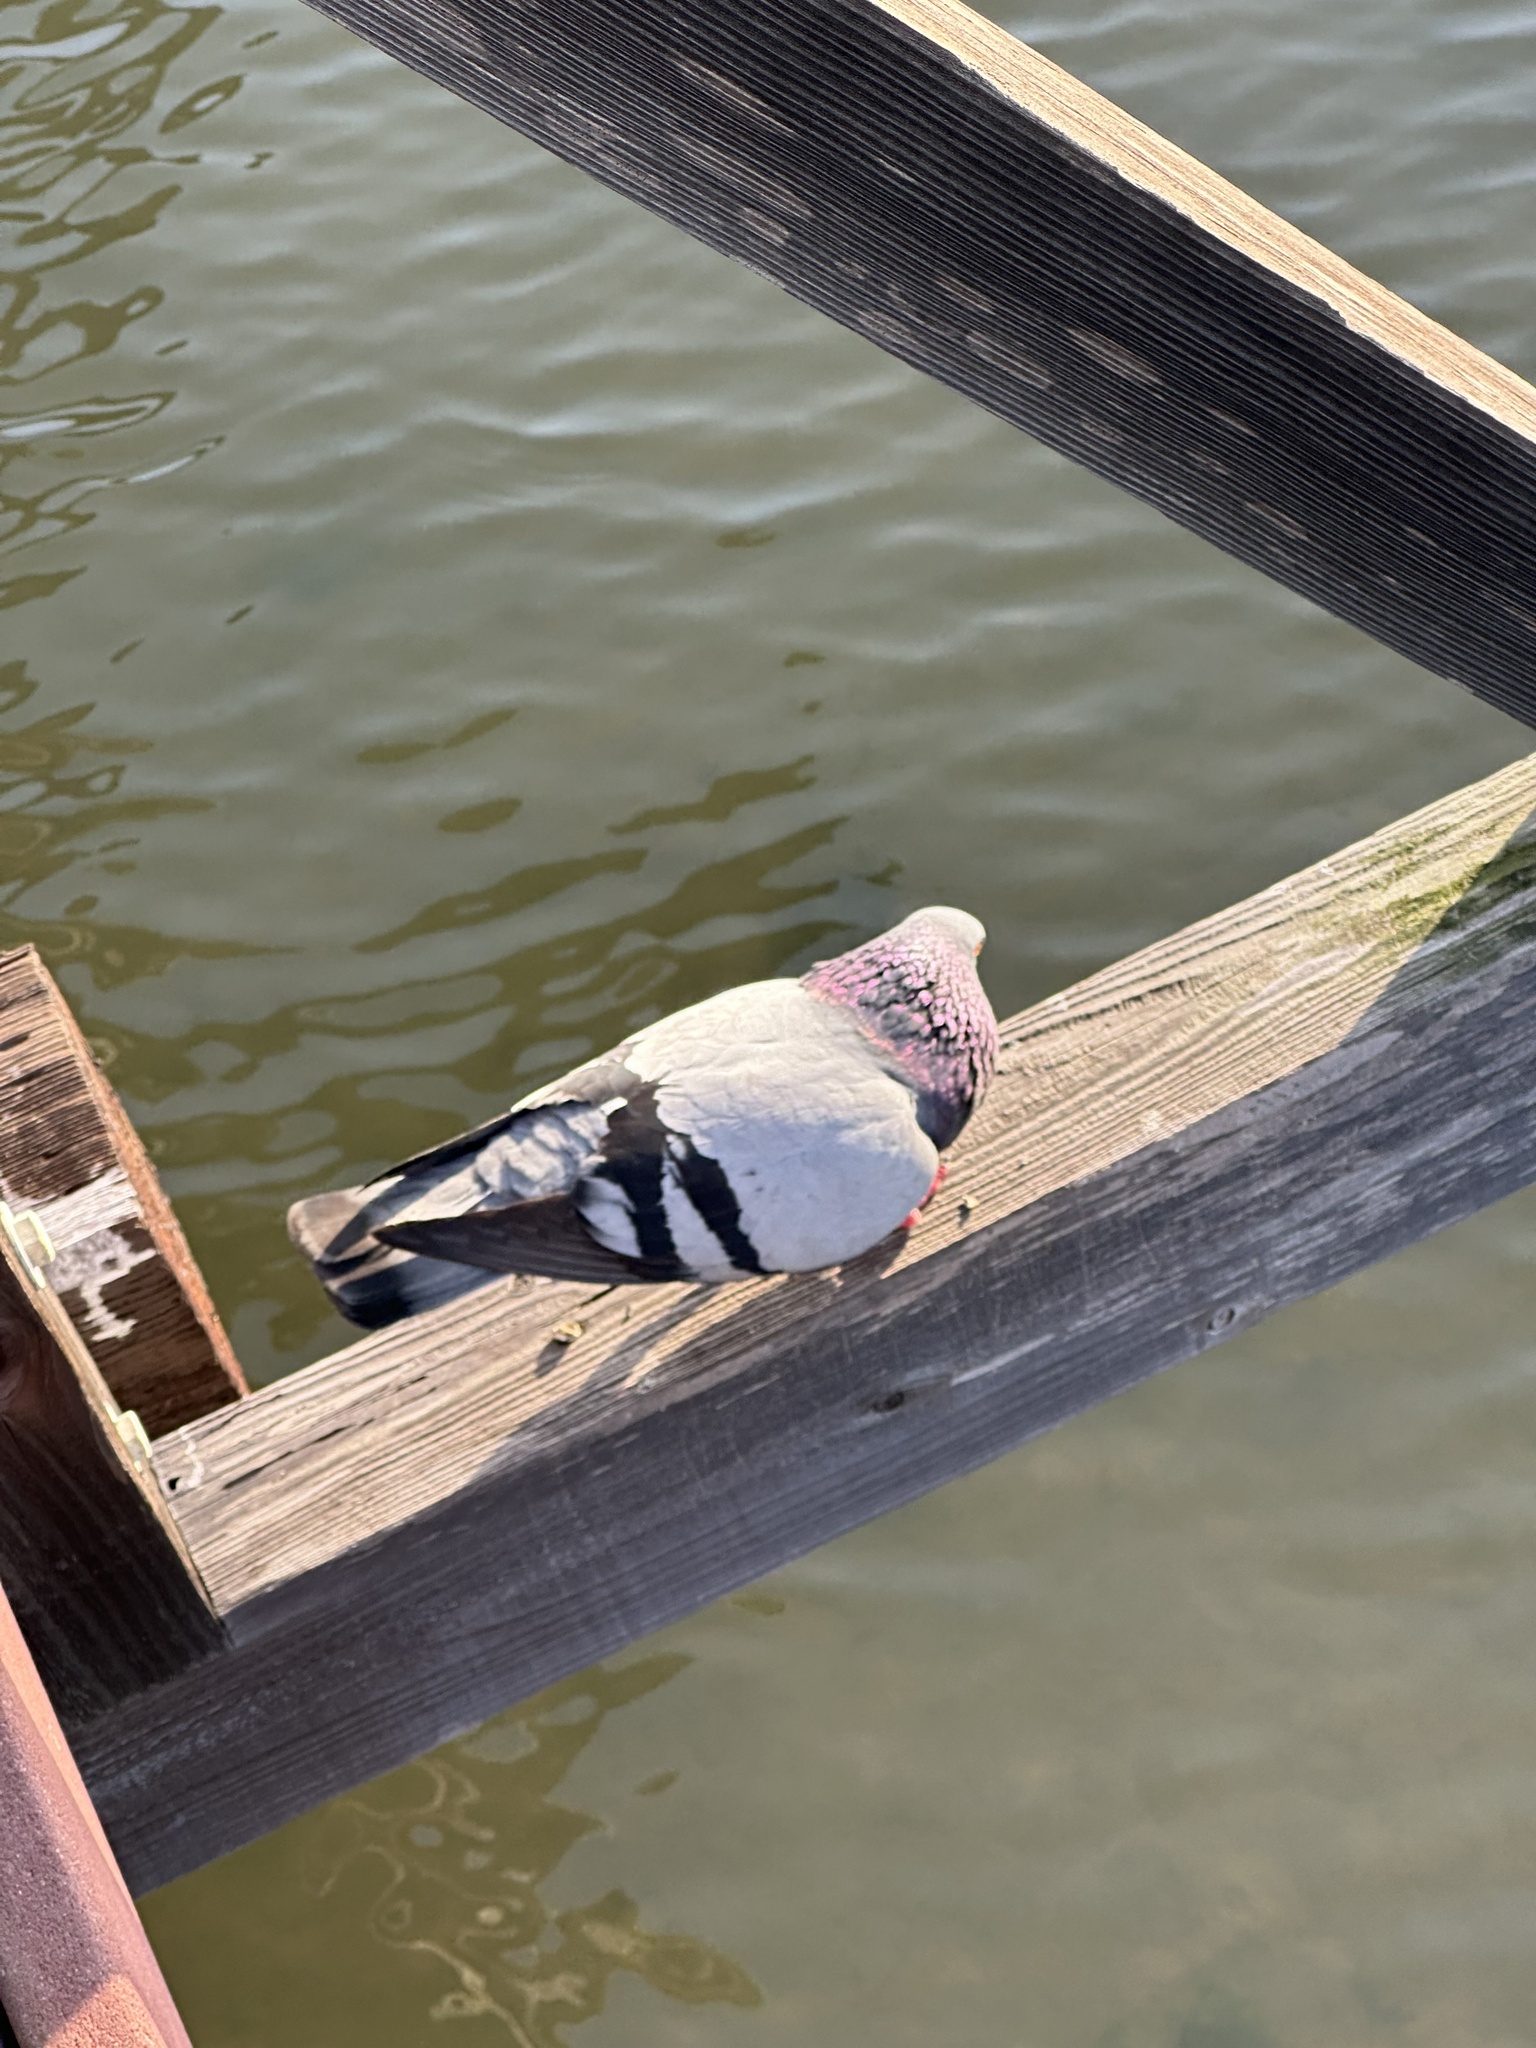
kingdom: Animalia
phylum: Chordata
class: Aves
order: Columbiformes
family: Columbidae
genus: Columba
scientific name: Columba livia
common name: Rock pigeon
